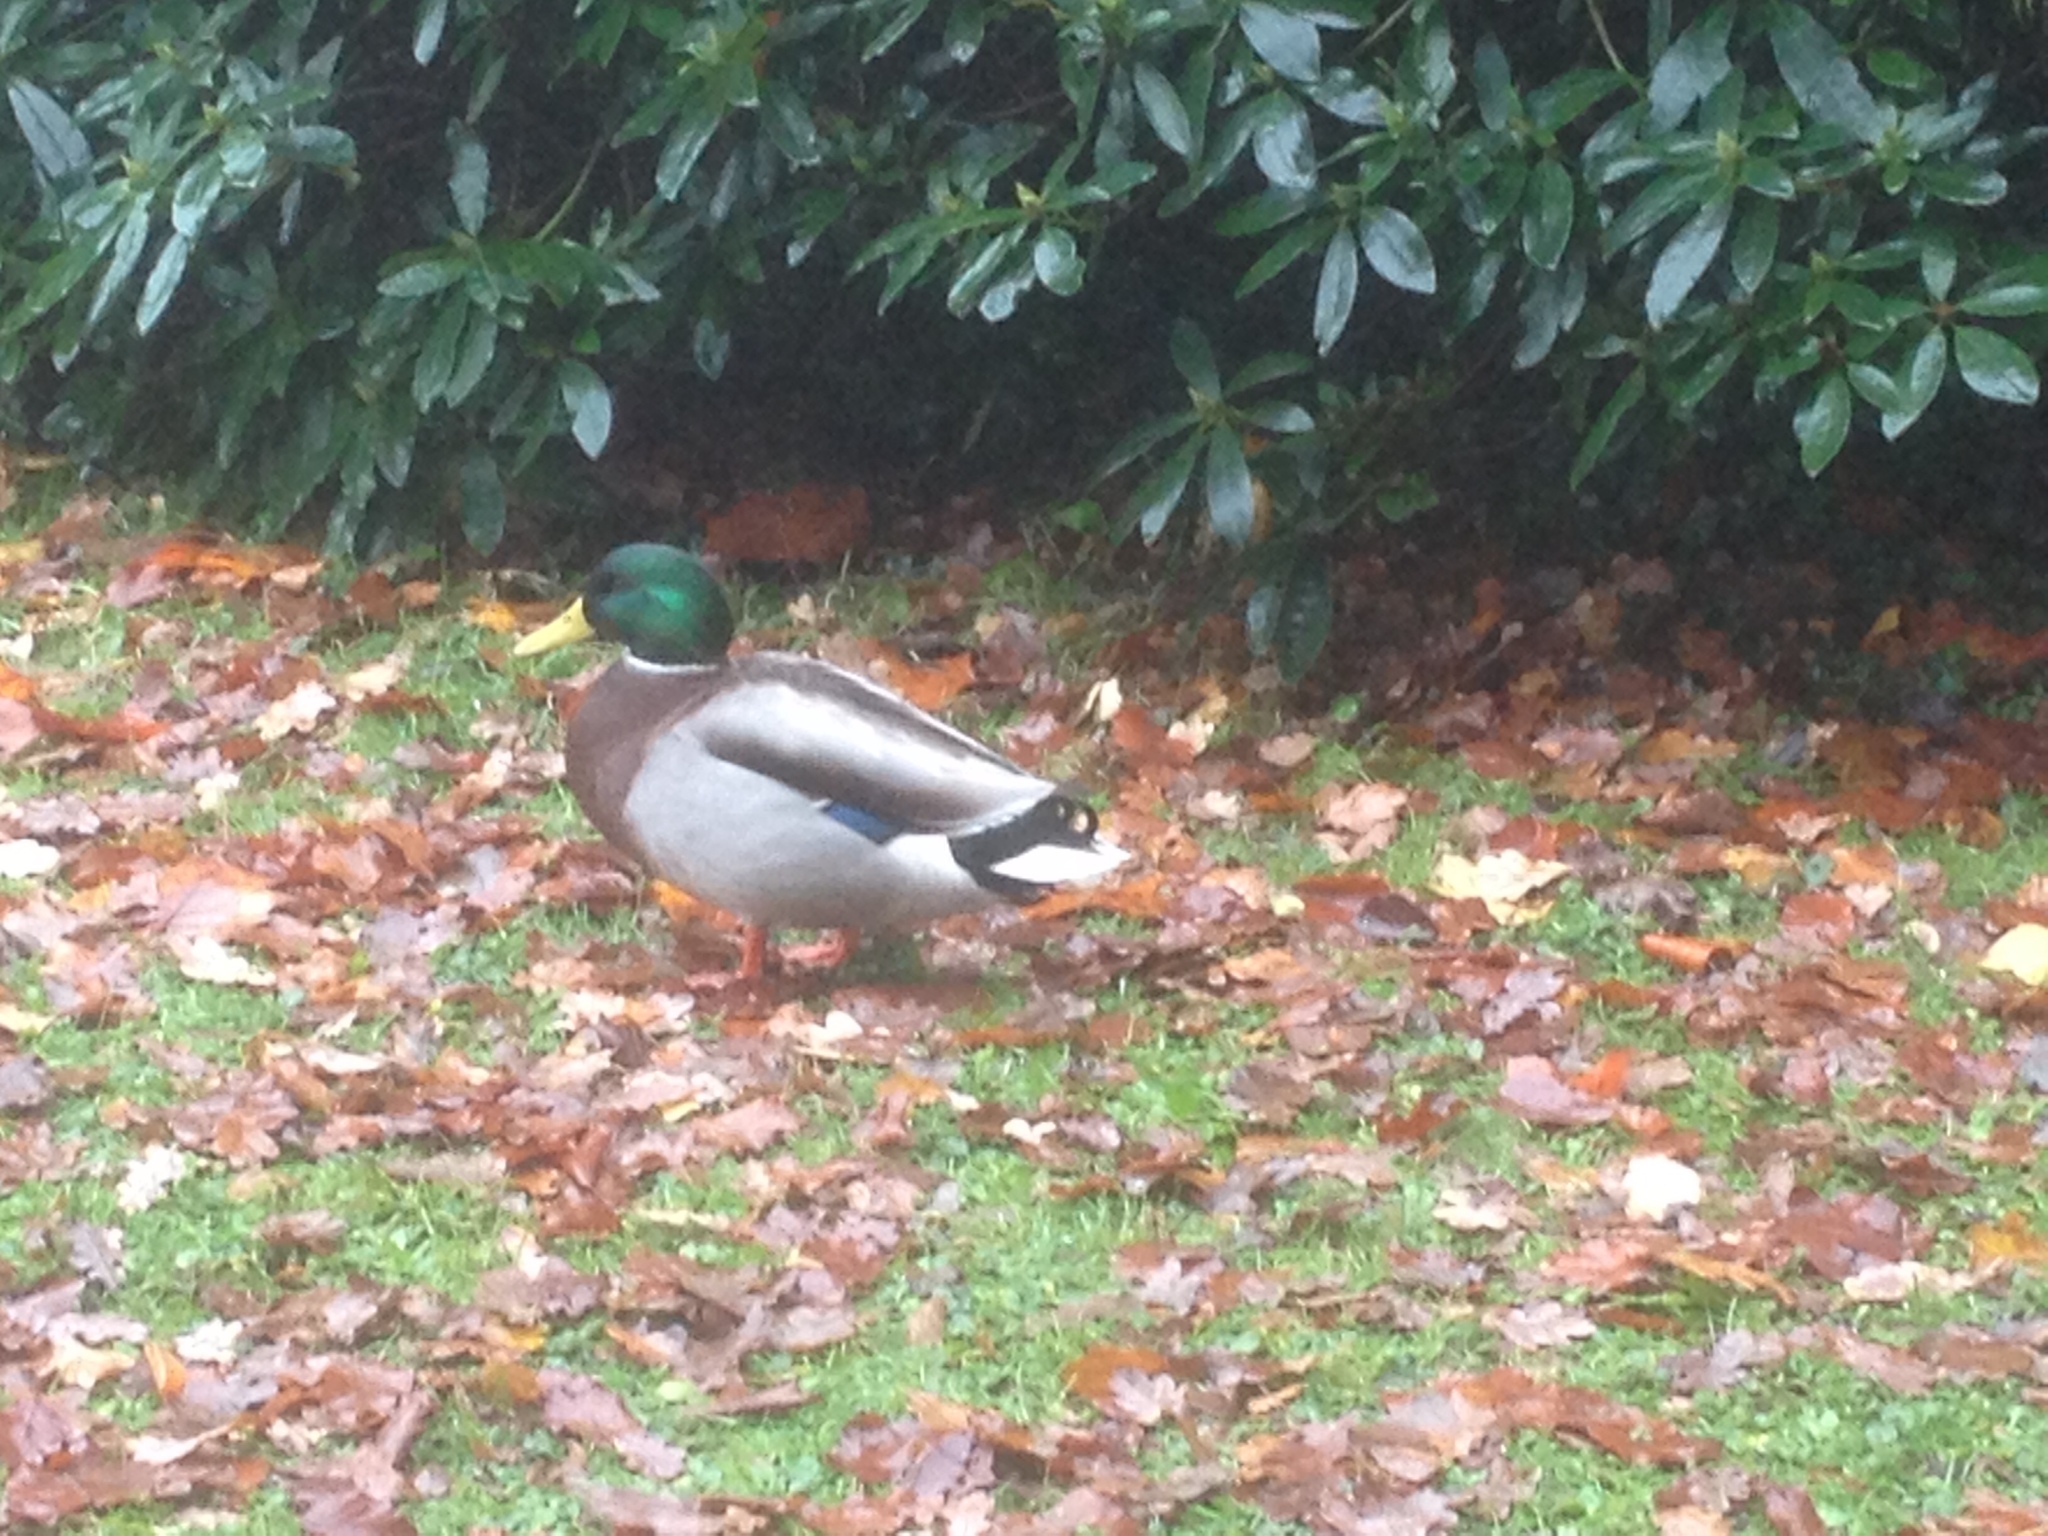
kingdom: Animalia
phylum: Chordata
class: Aves
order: Anseriformes
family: Anatidae
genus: Anas
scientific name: Anas platyrhynchos
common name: Mallard
